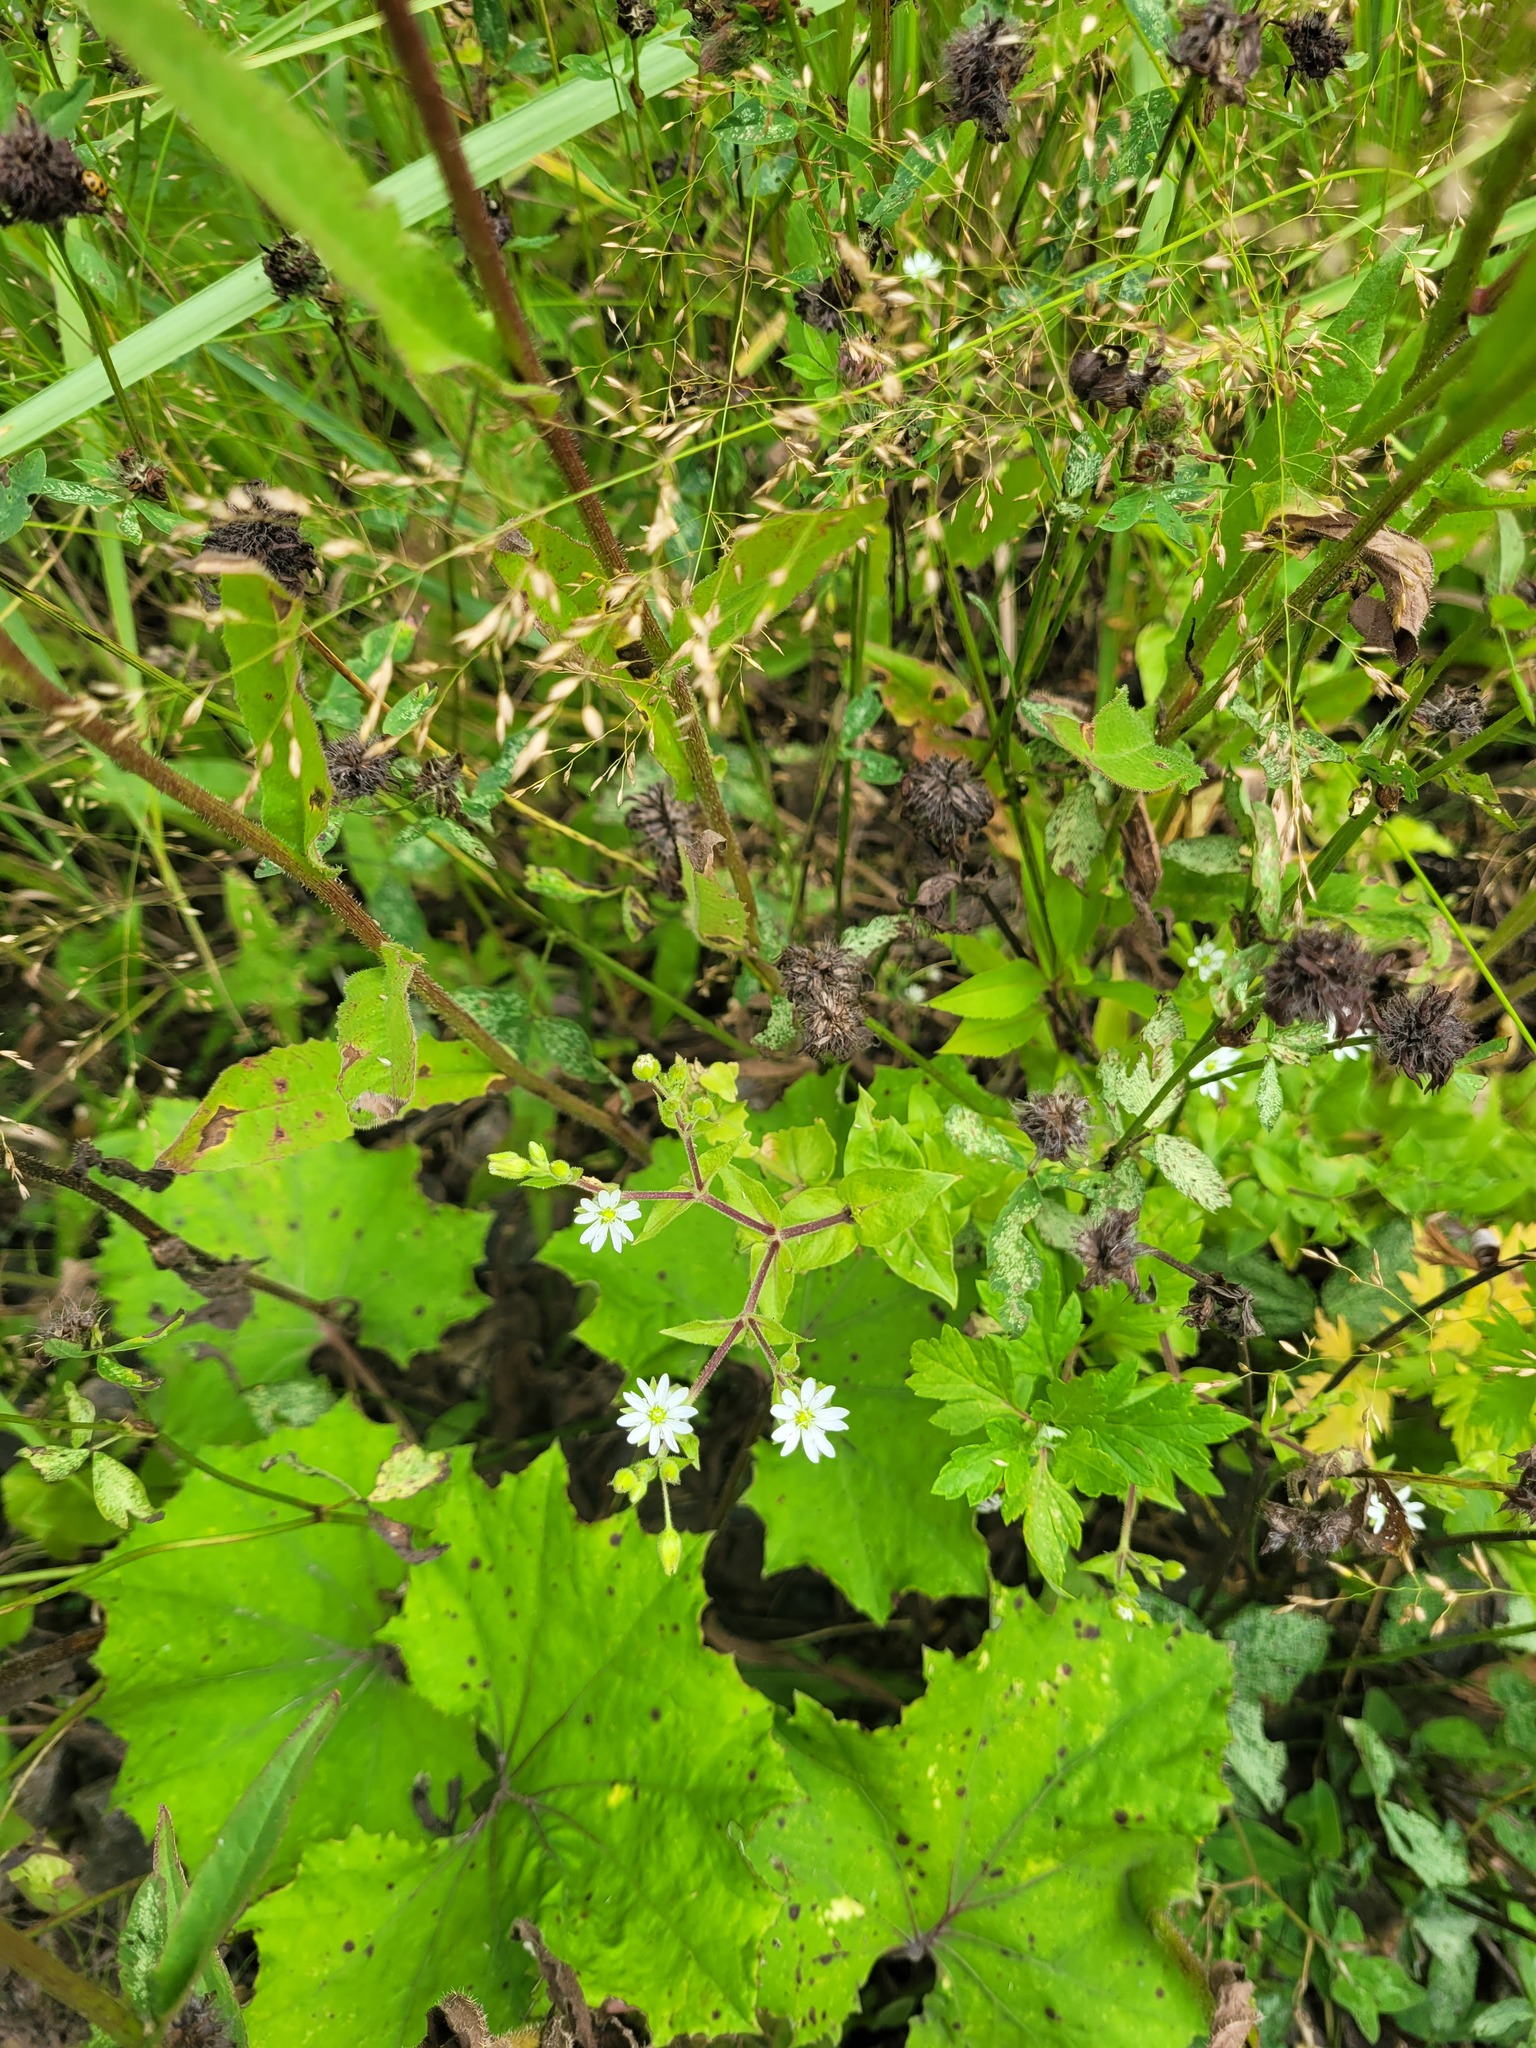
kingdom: Plantae
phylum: Tracheophyta
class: Magnoliopsida
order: Caryophyllales
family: Caryophyllaceae
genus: Stellaria
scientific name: Stellaria aquatica
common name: Water chickweed
